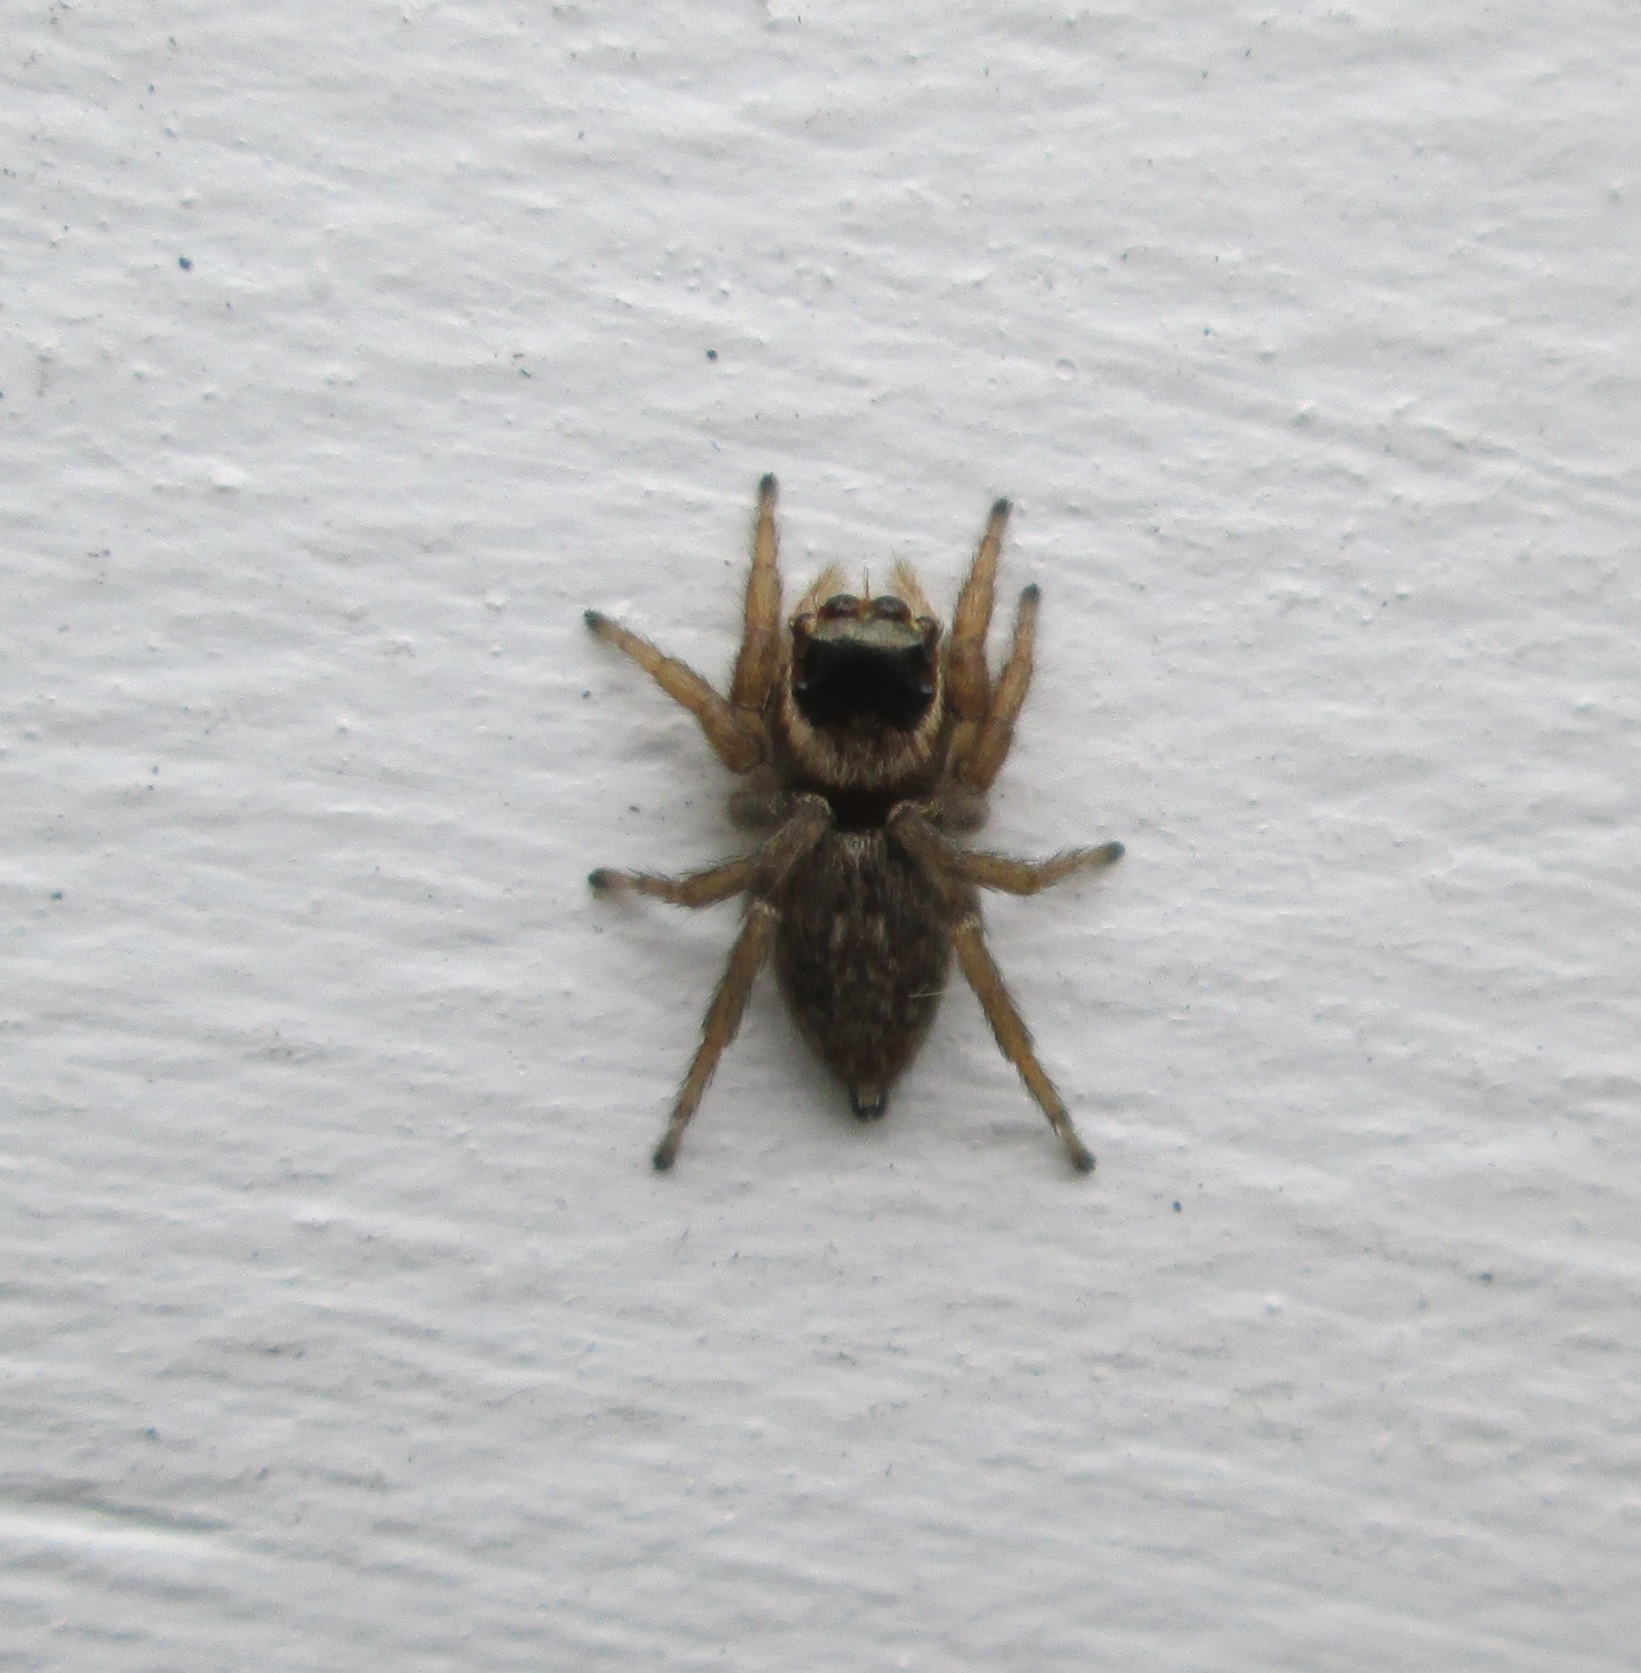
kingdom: Animalia
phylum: Arthropoda
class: Arachnida
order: Araneae
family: Salticidae
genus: Maratus
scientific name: Maratus griseus
